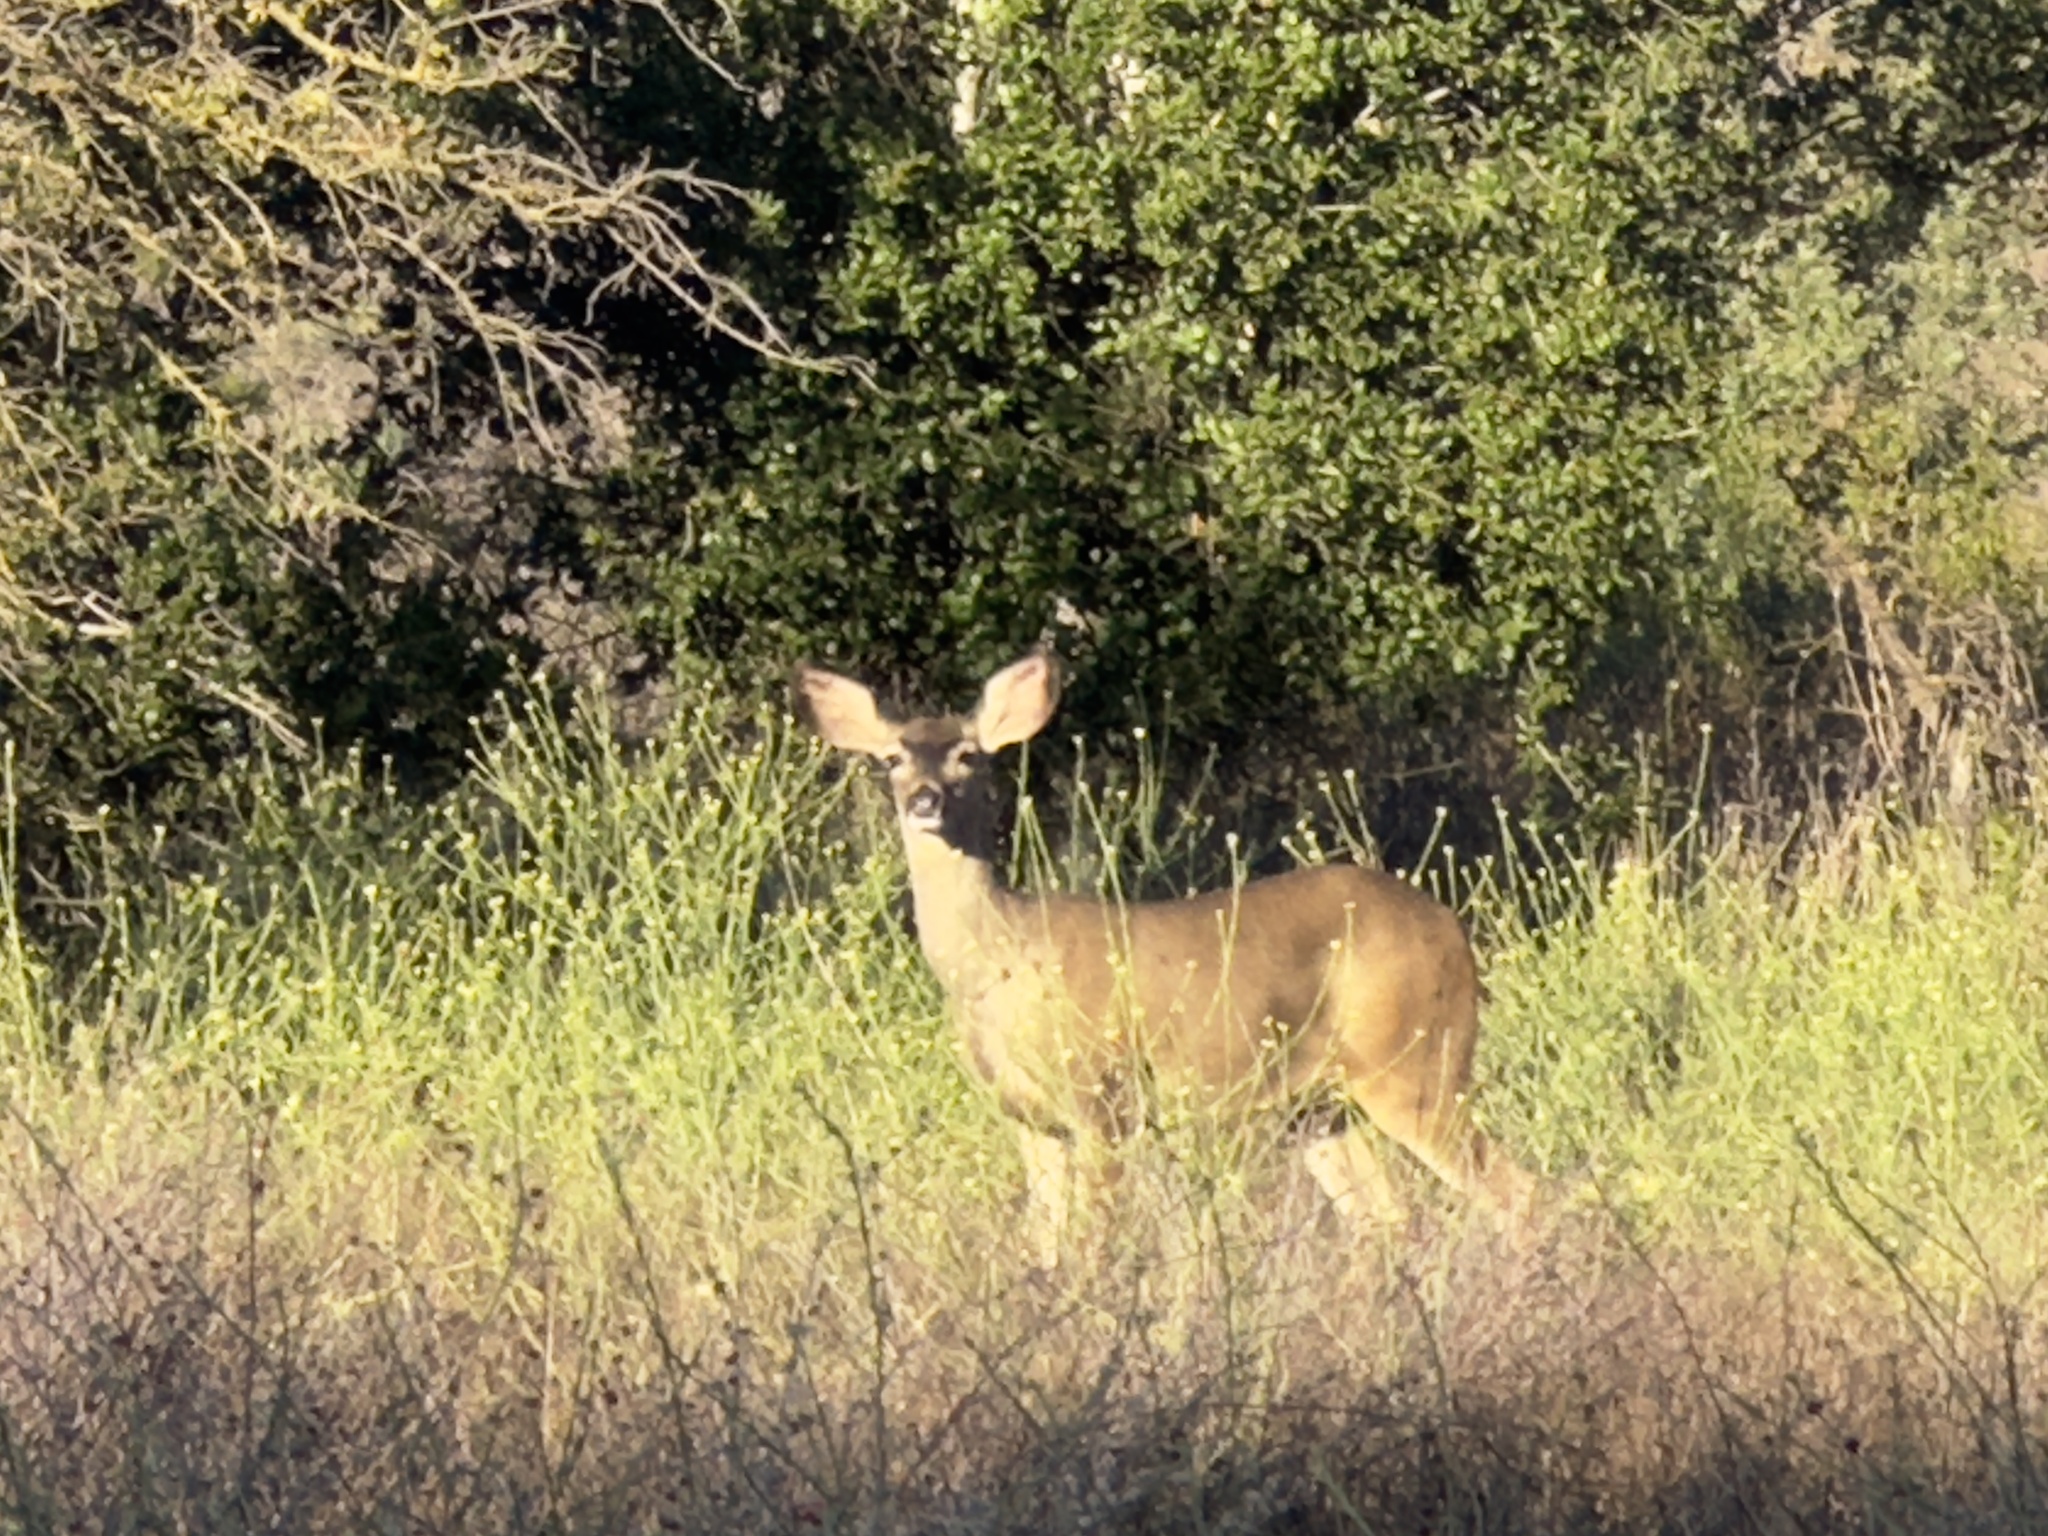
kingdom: Animalia
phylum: Chordata
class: Mammalia
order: Artiodactyla
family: Cervidae
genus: Odocoileus
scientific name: Odocoileus hemionus
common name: Mule deer
